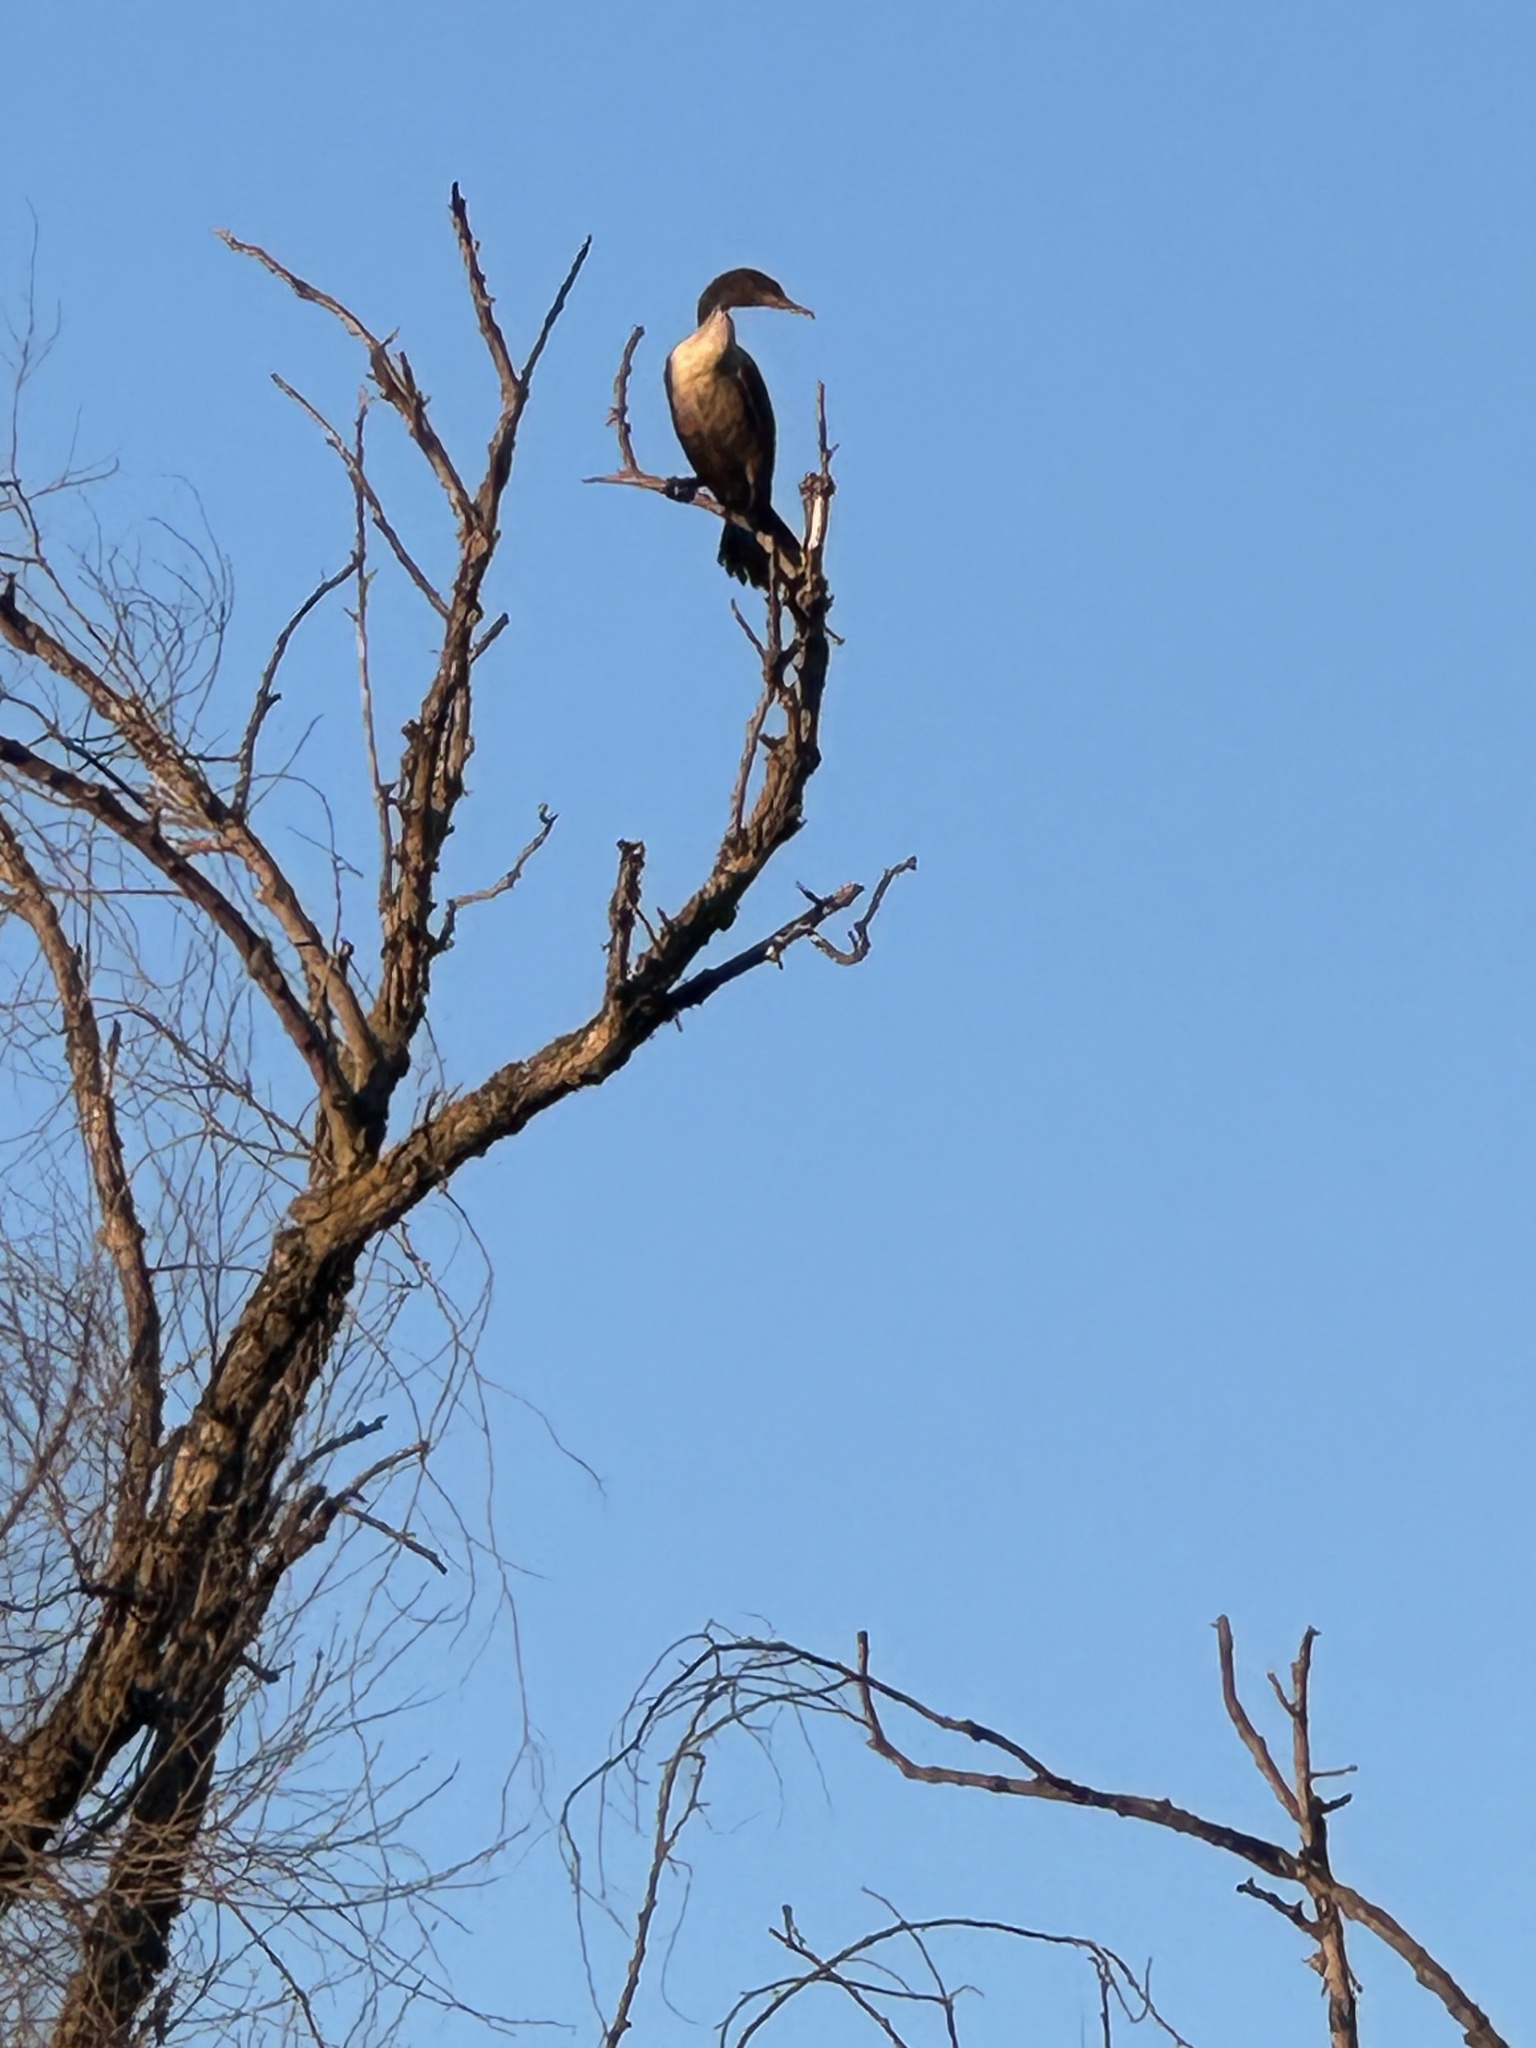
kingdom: Animalia
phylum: Chordata
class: Aves
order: Suliformes
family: Phalacrocoracidae
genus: Phalacrocorax
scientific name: Phalacrocorax auritus
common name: Double-crested cormorant
